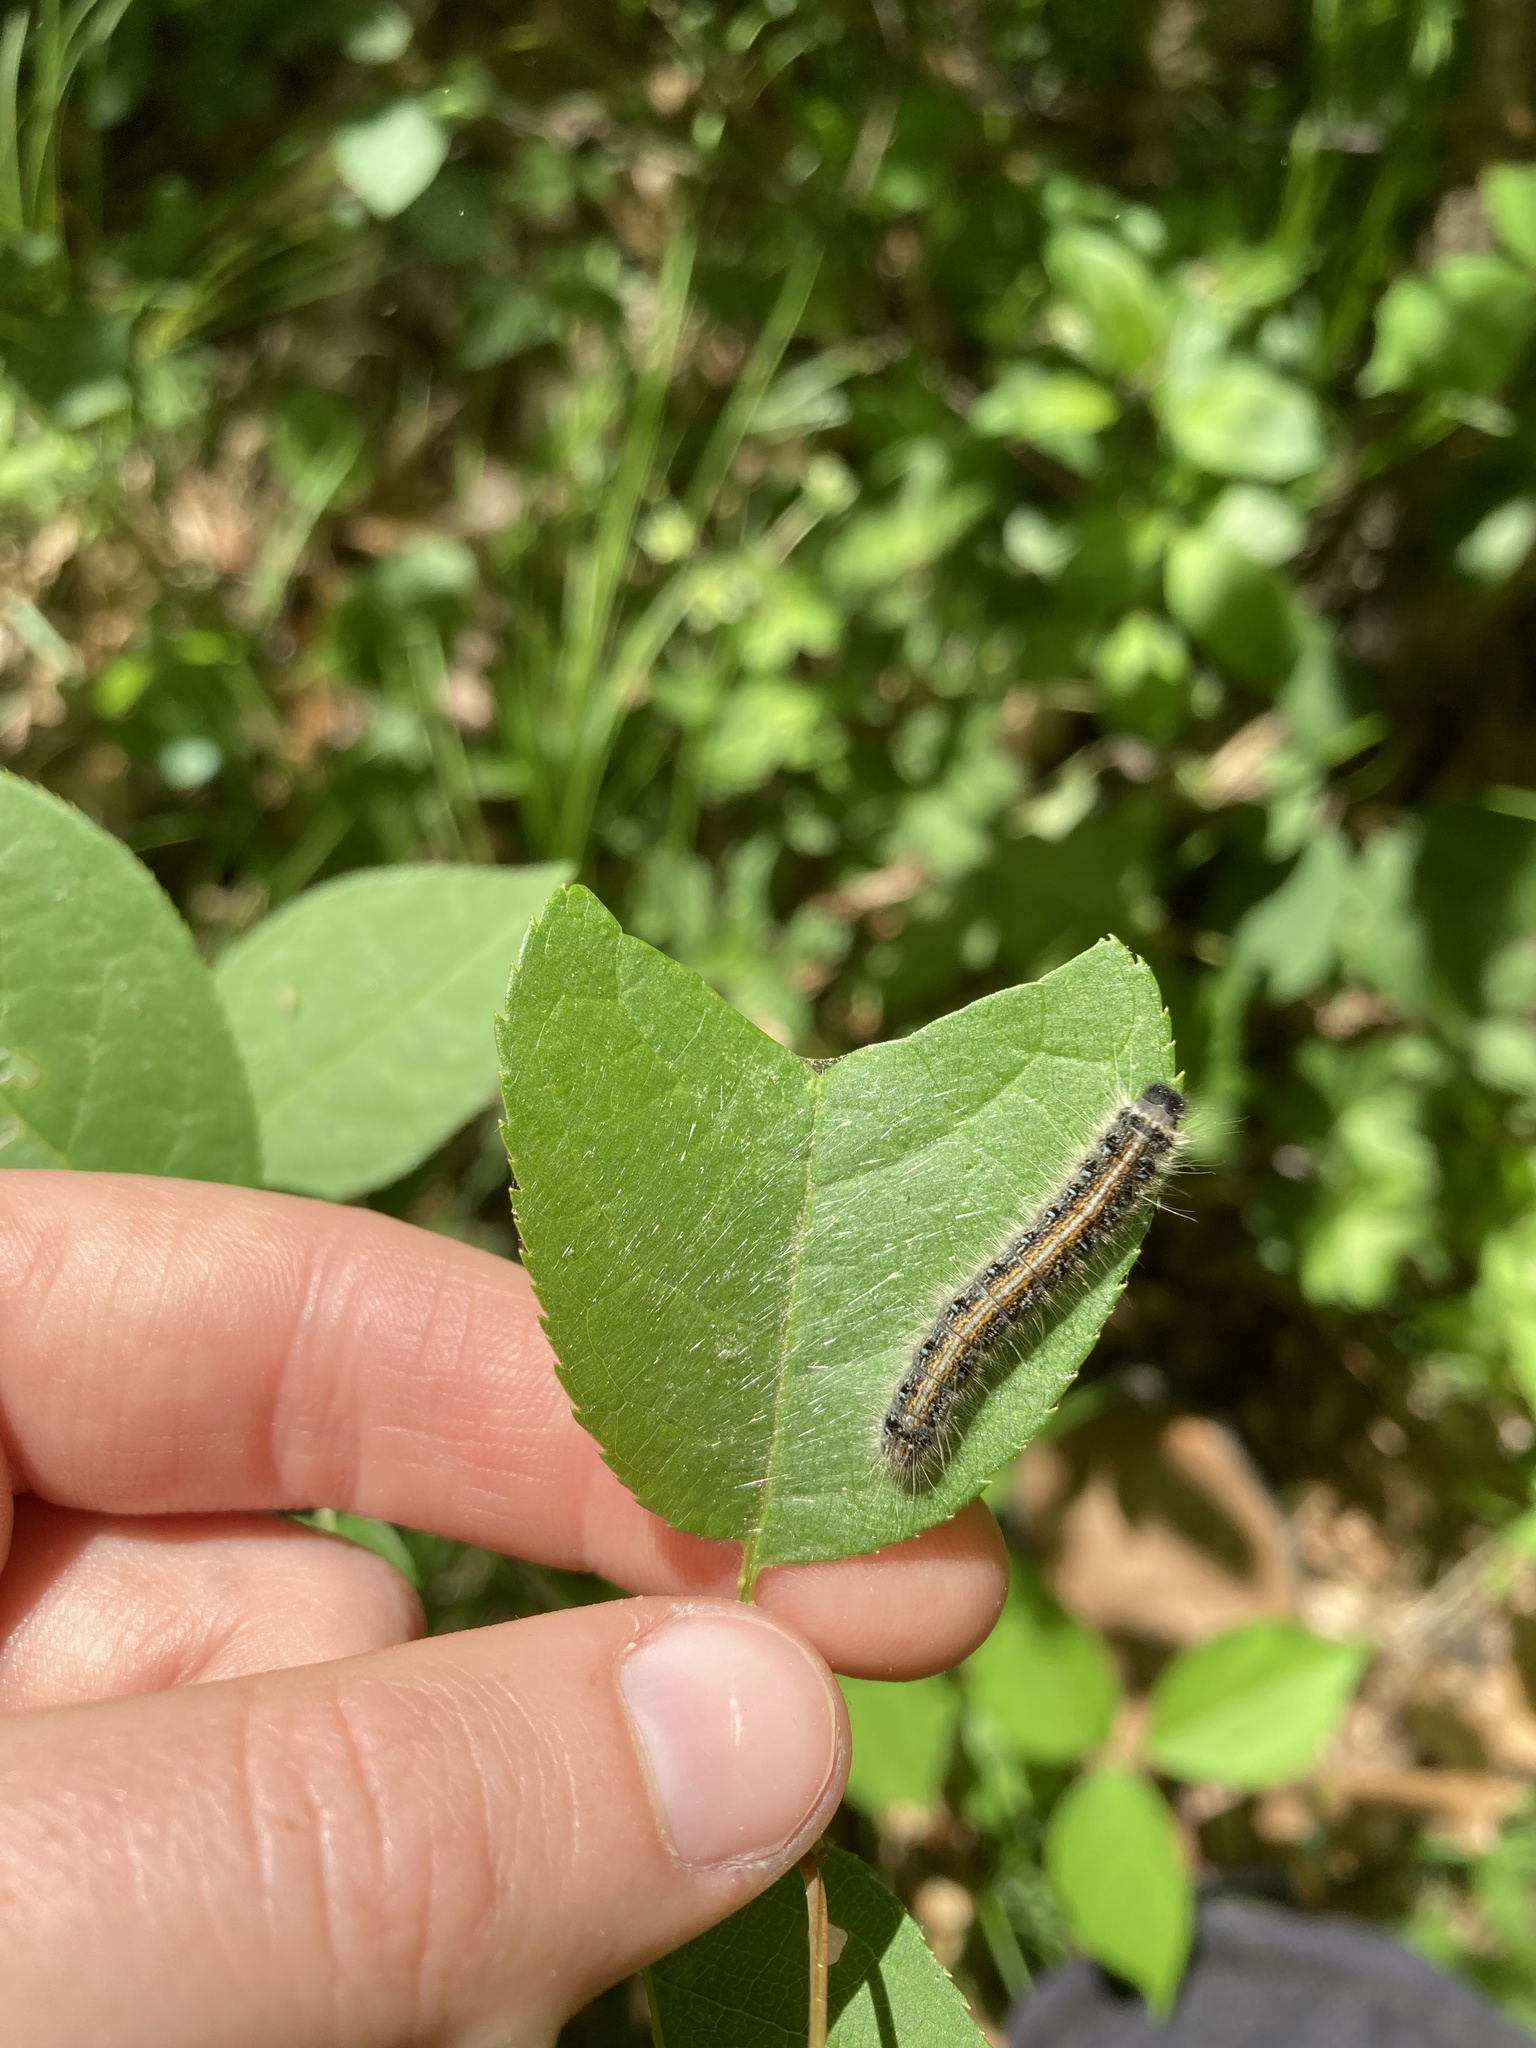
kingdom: Animalia
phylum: Arthropoda
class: Insecta
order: Lepidoptera
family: Lasiocampidae
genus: Malacosoma
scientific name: Malacosoma americana
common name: Eastern tent caterpillar moth
